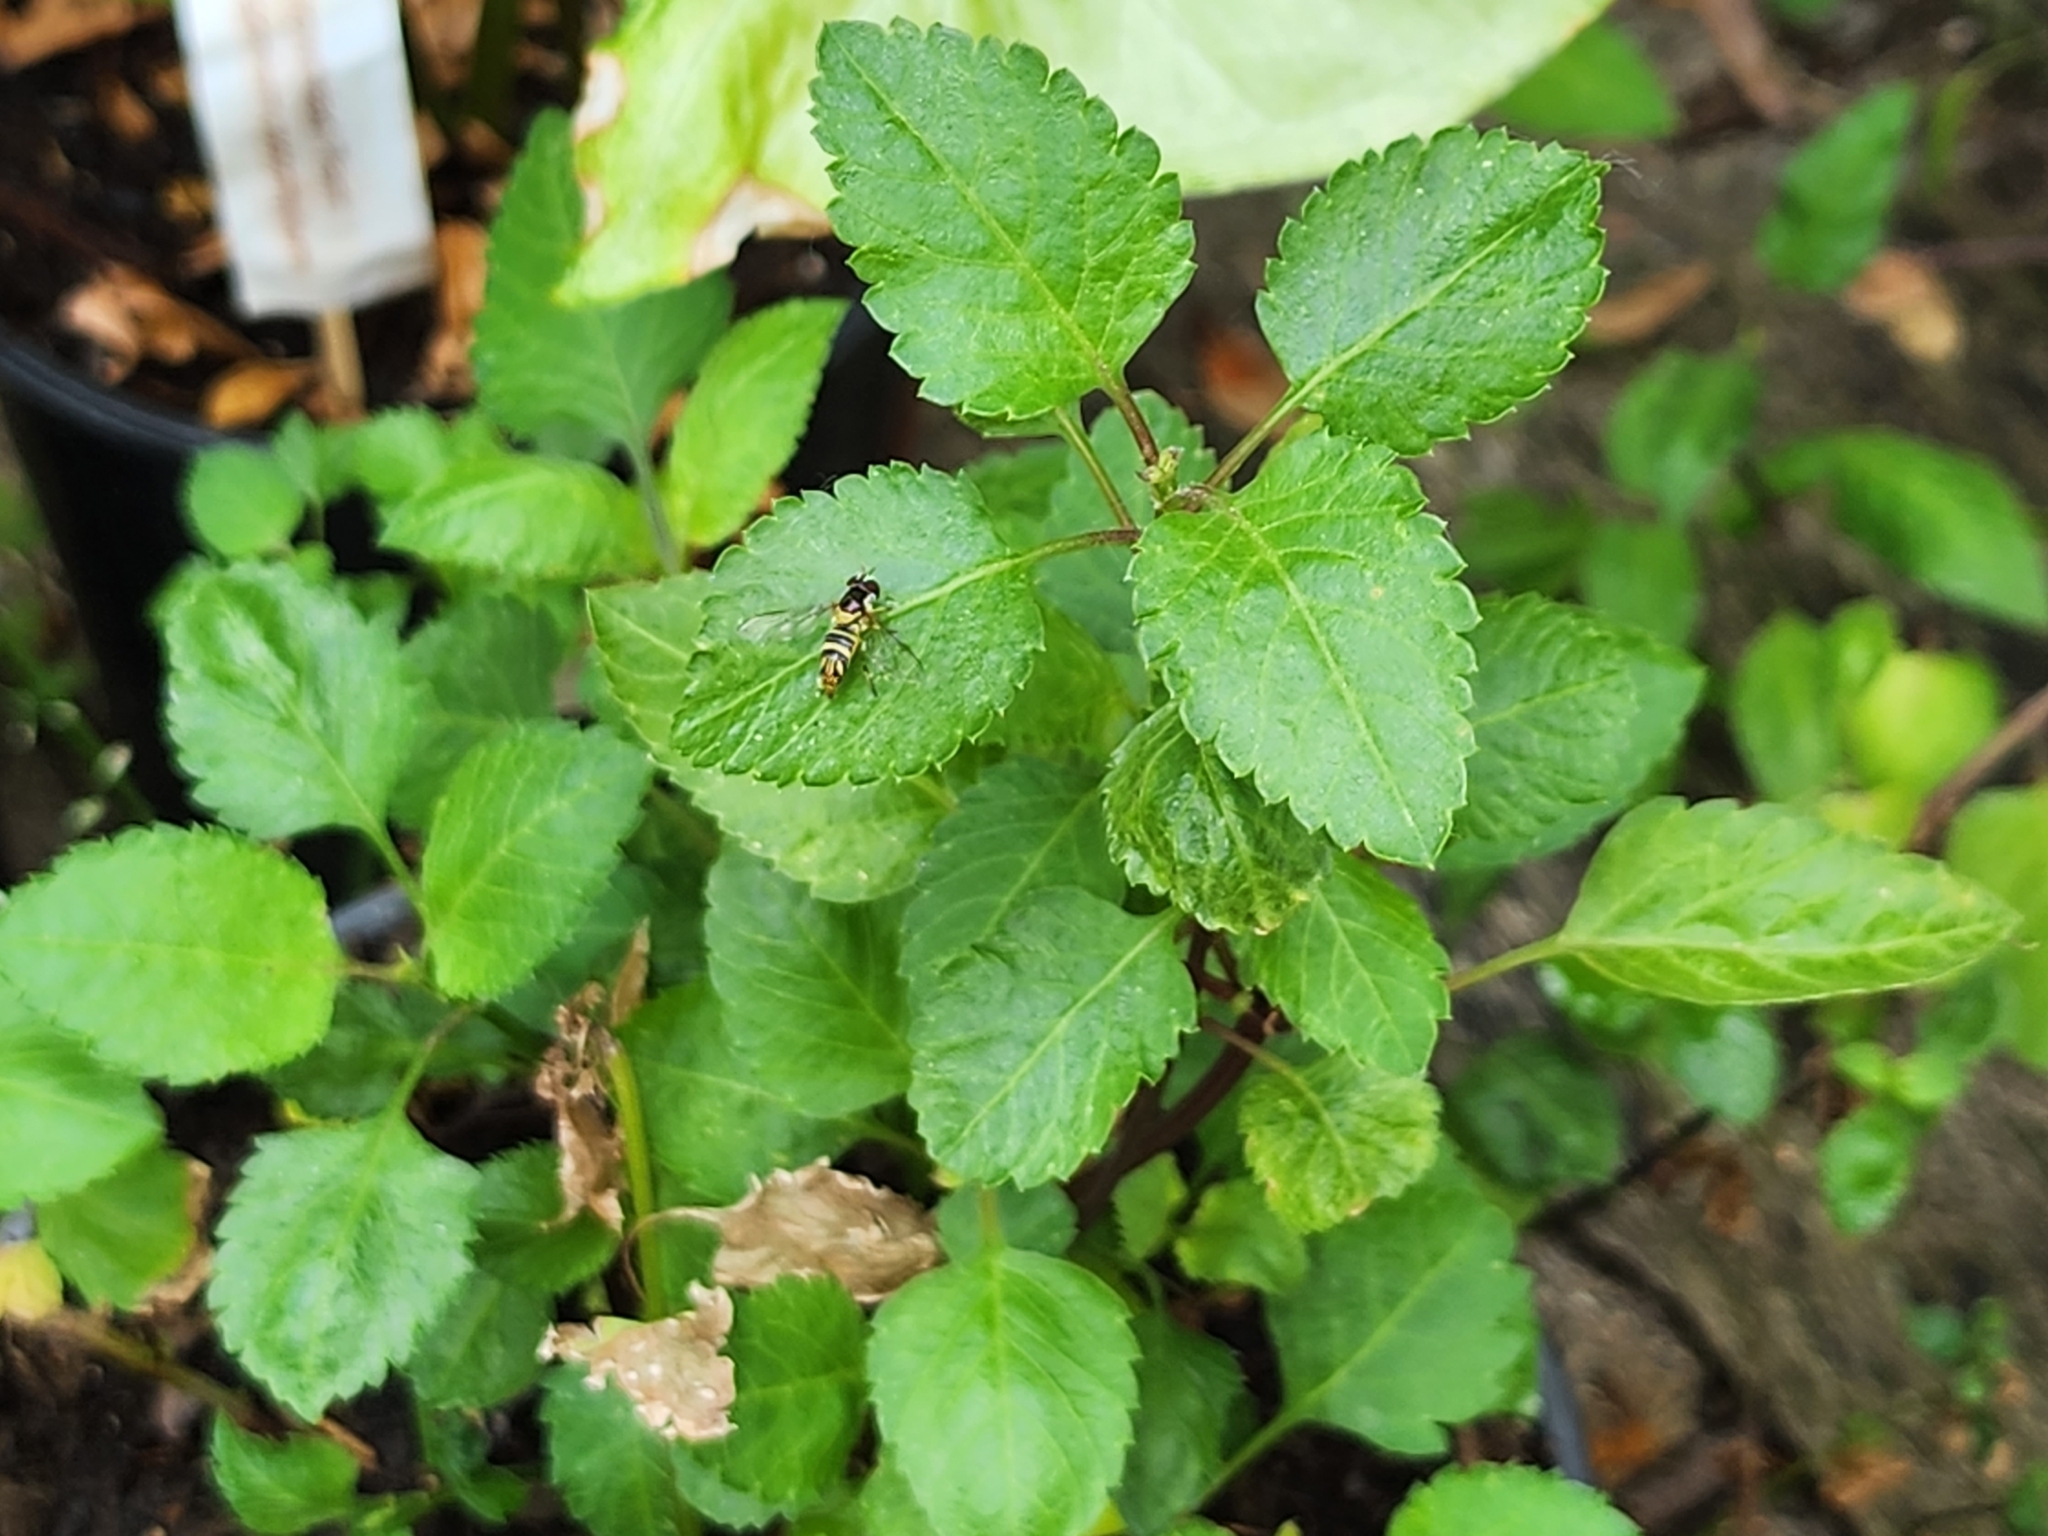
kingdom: Animalia
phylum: Arthropoda
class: Insecta
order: Diptera
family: Syrphidae
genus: Allograpta
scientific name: Allograpta obliqua
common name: Common oblique syrphid
